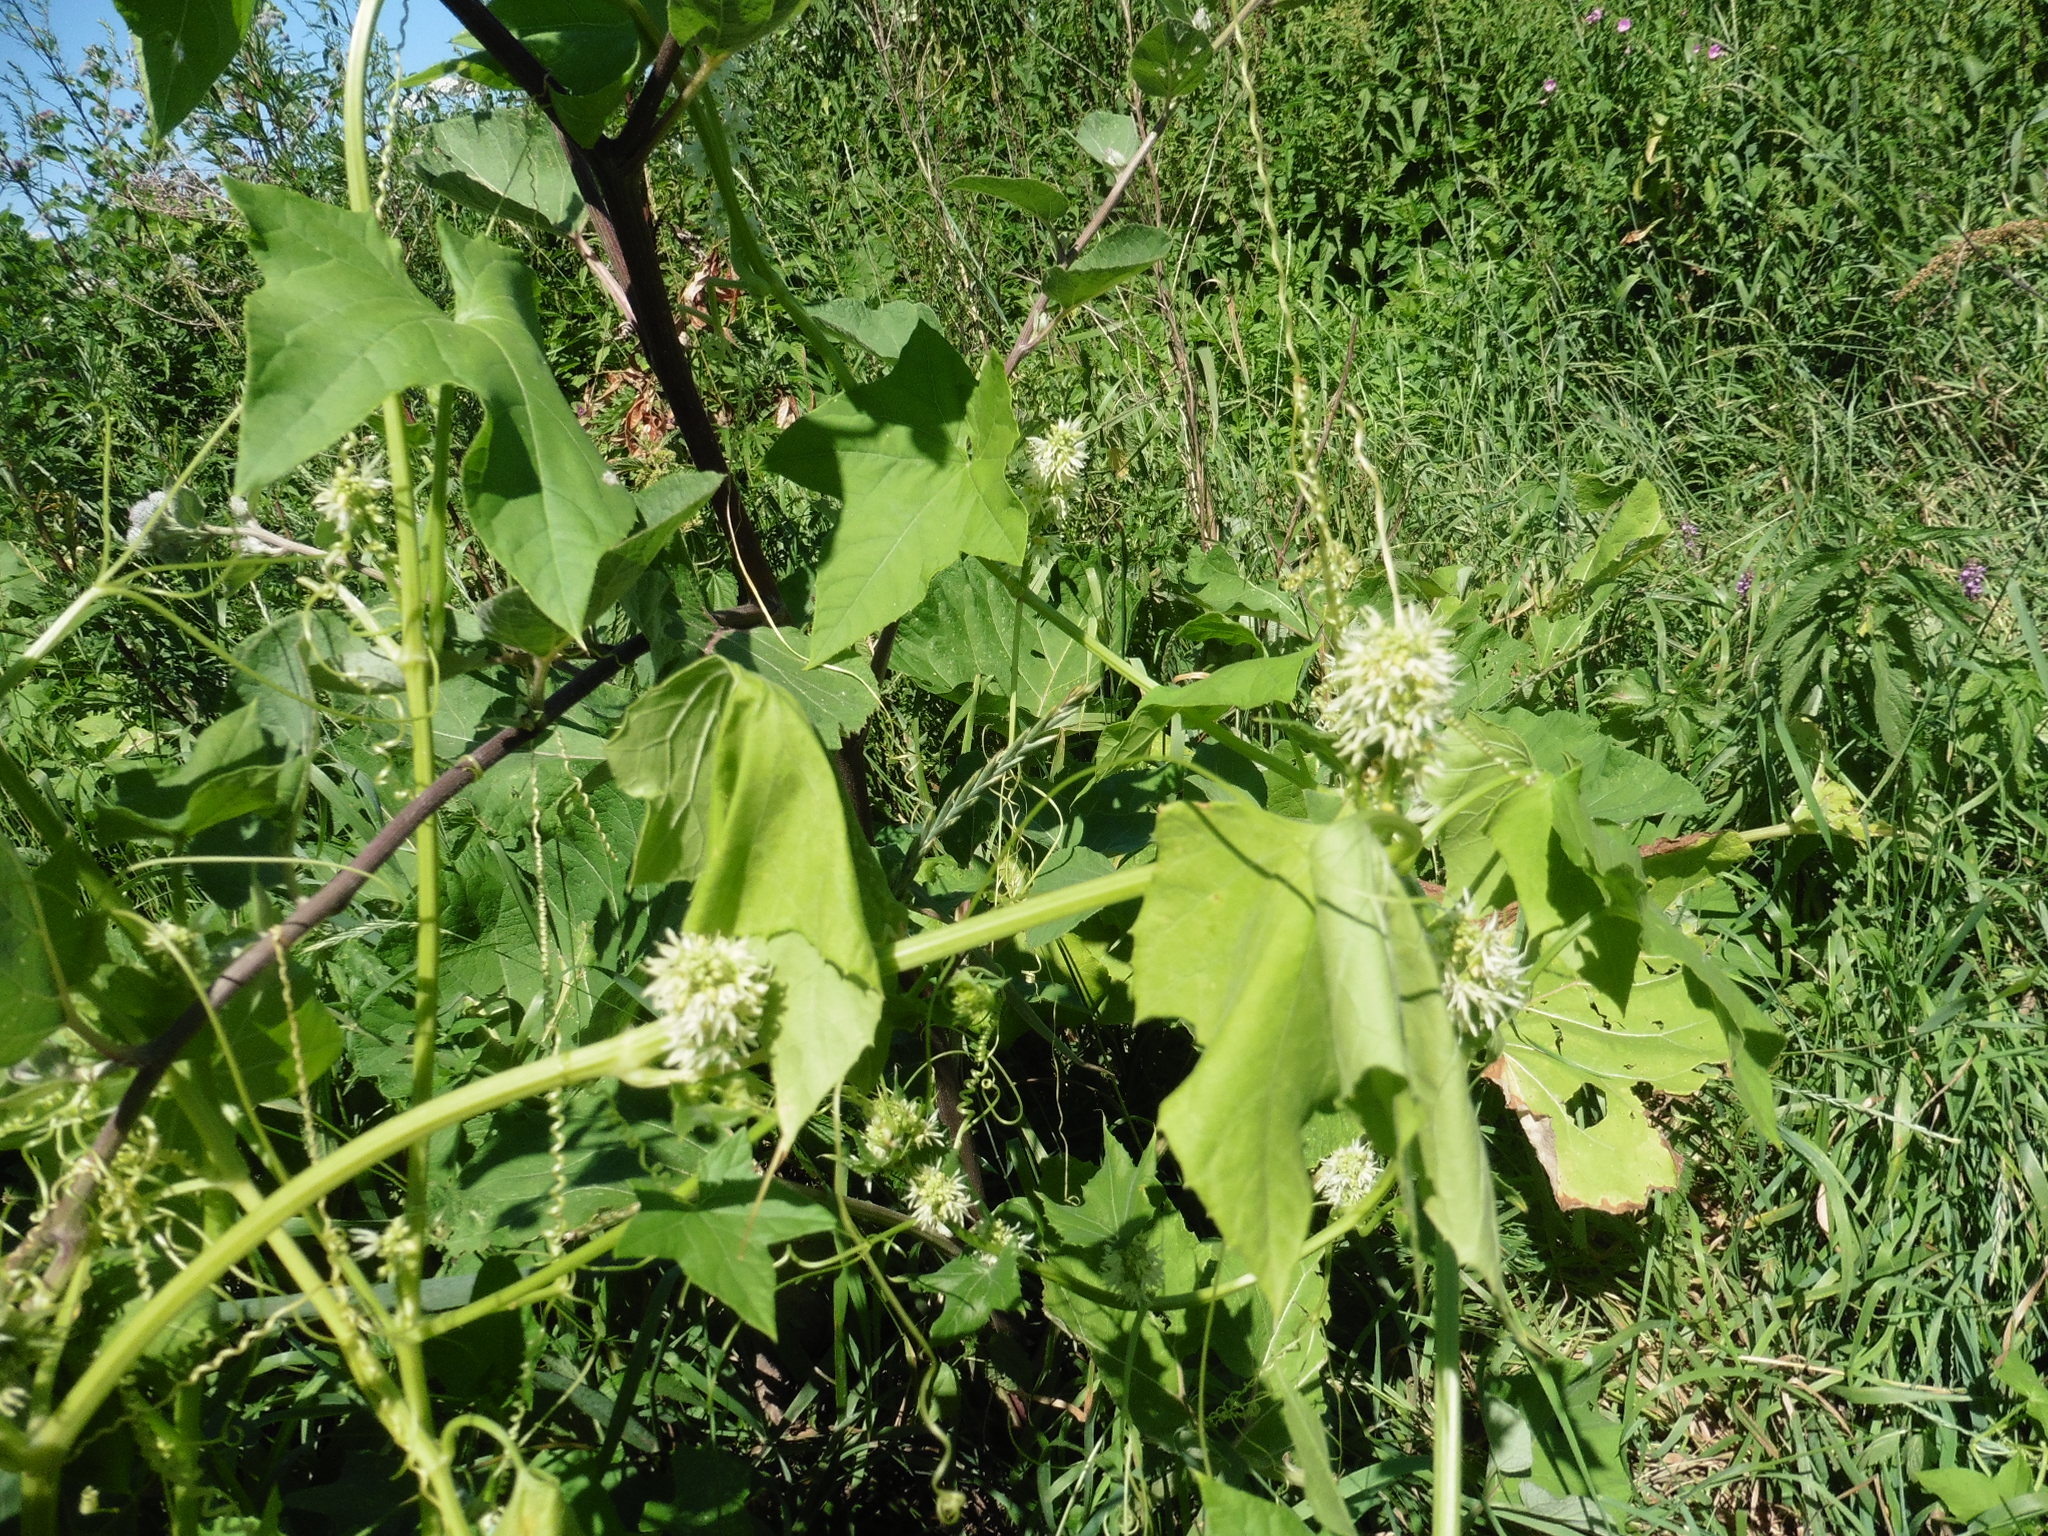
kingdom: Plantae
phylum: Tracheophyta
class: Magnoliopsida
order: Cucurbitales
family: Cucurbitaceae
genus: Echinocystis
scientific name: Echinocystis lobata
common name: Wild cucumber
